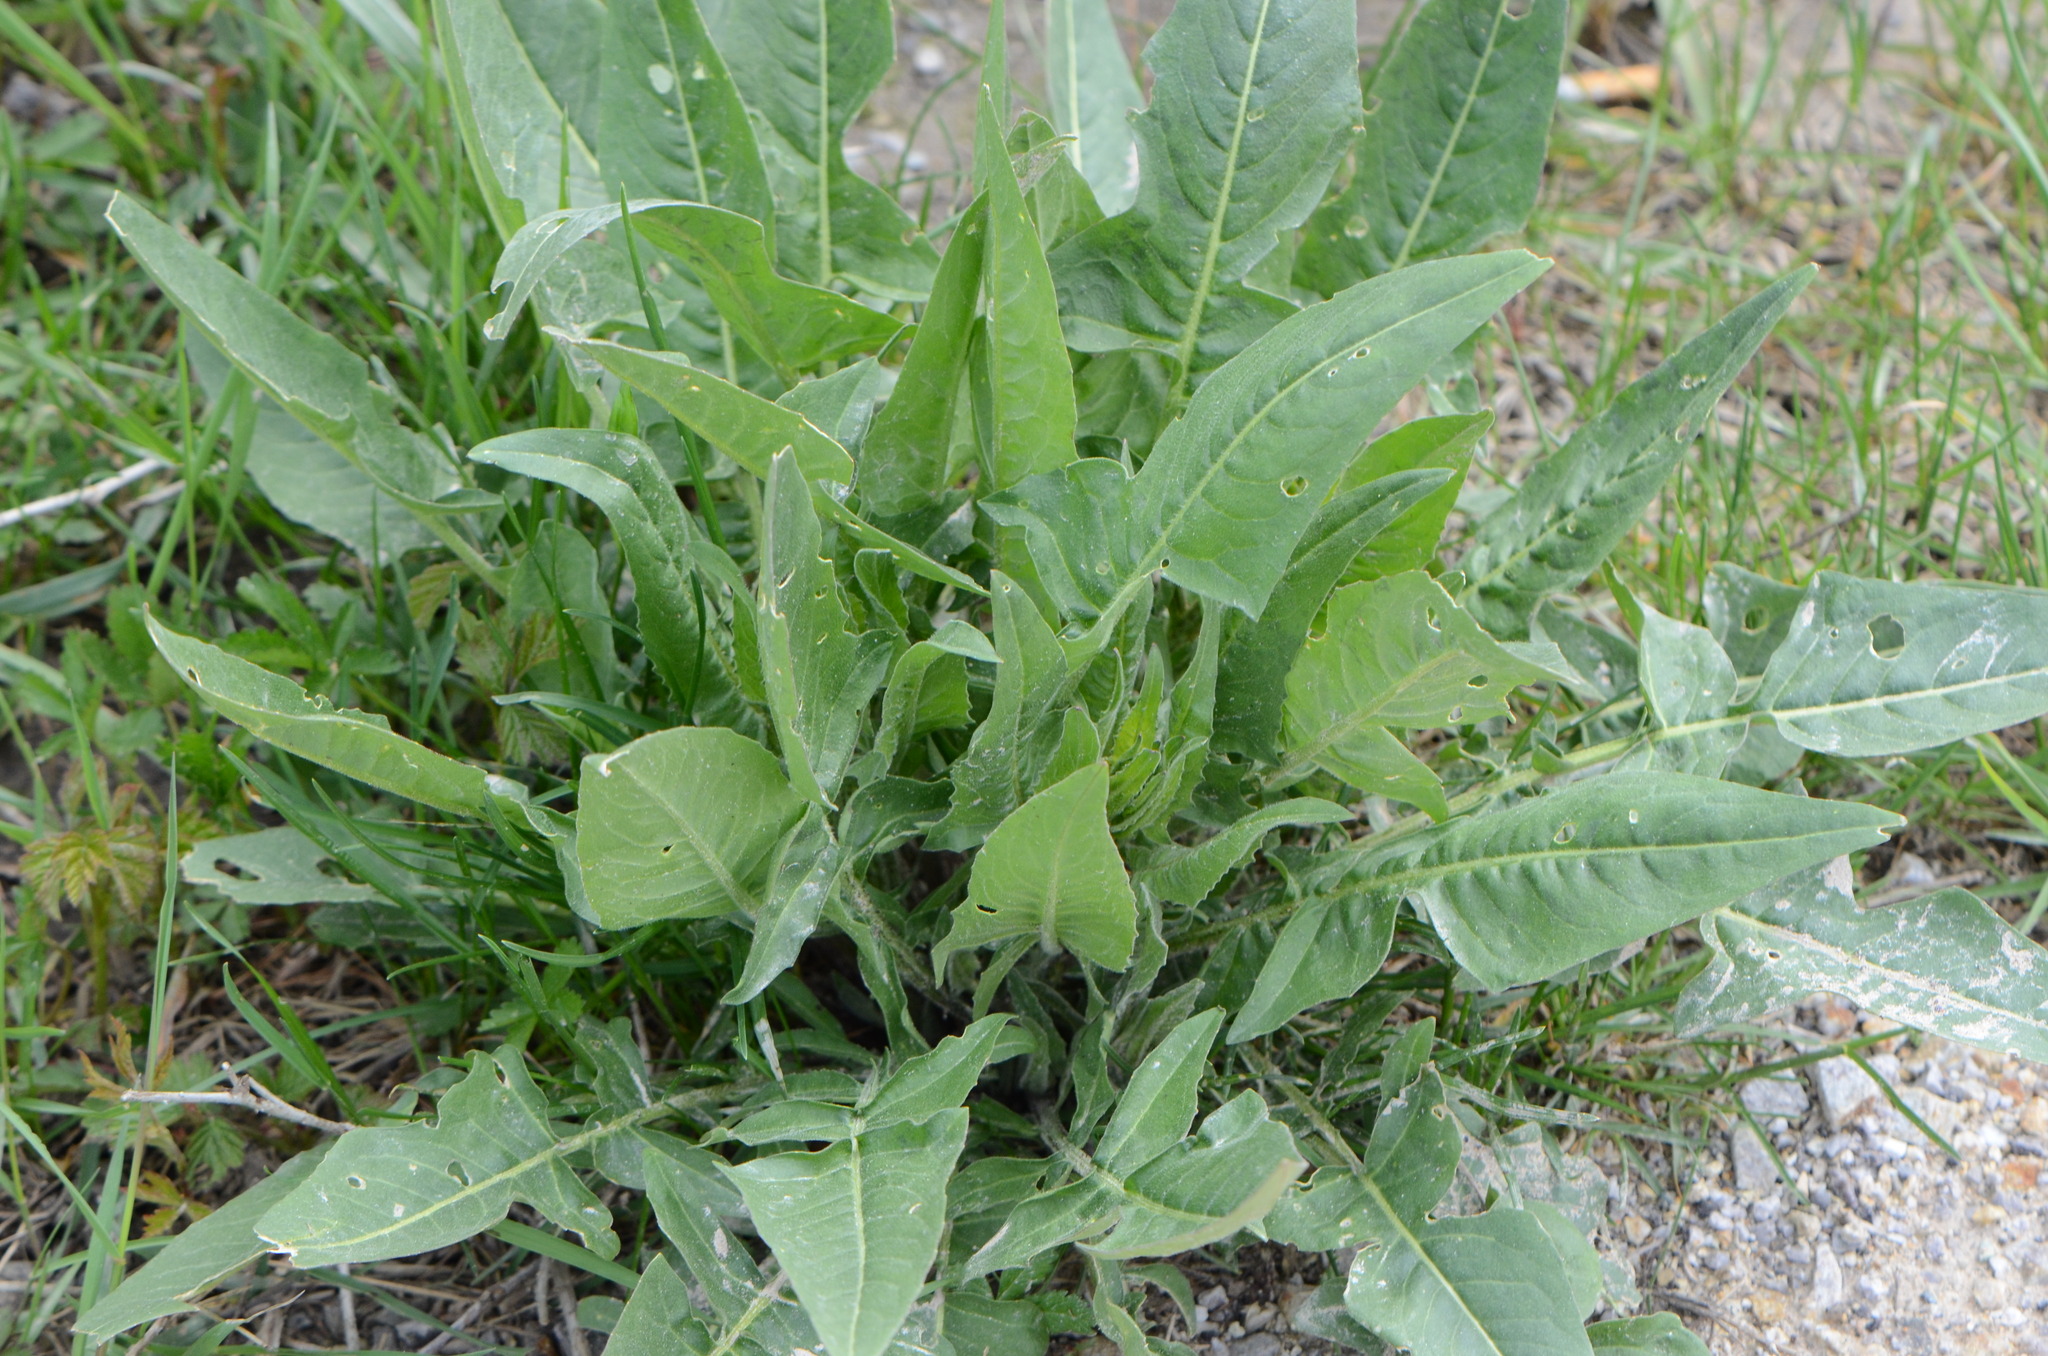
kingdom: Plantae
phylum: Tracheophyta
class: Magnoliopsida
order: Brassicales
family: Brassicaceae
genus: Bunias
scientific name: Bunias orientalis
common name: Warty-cabbage
